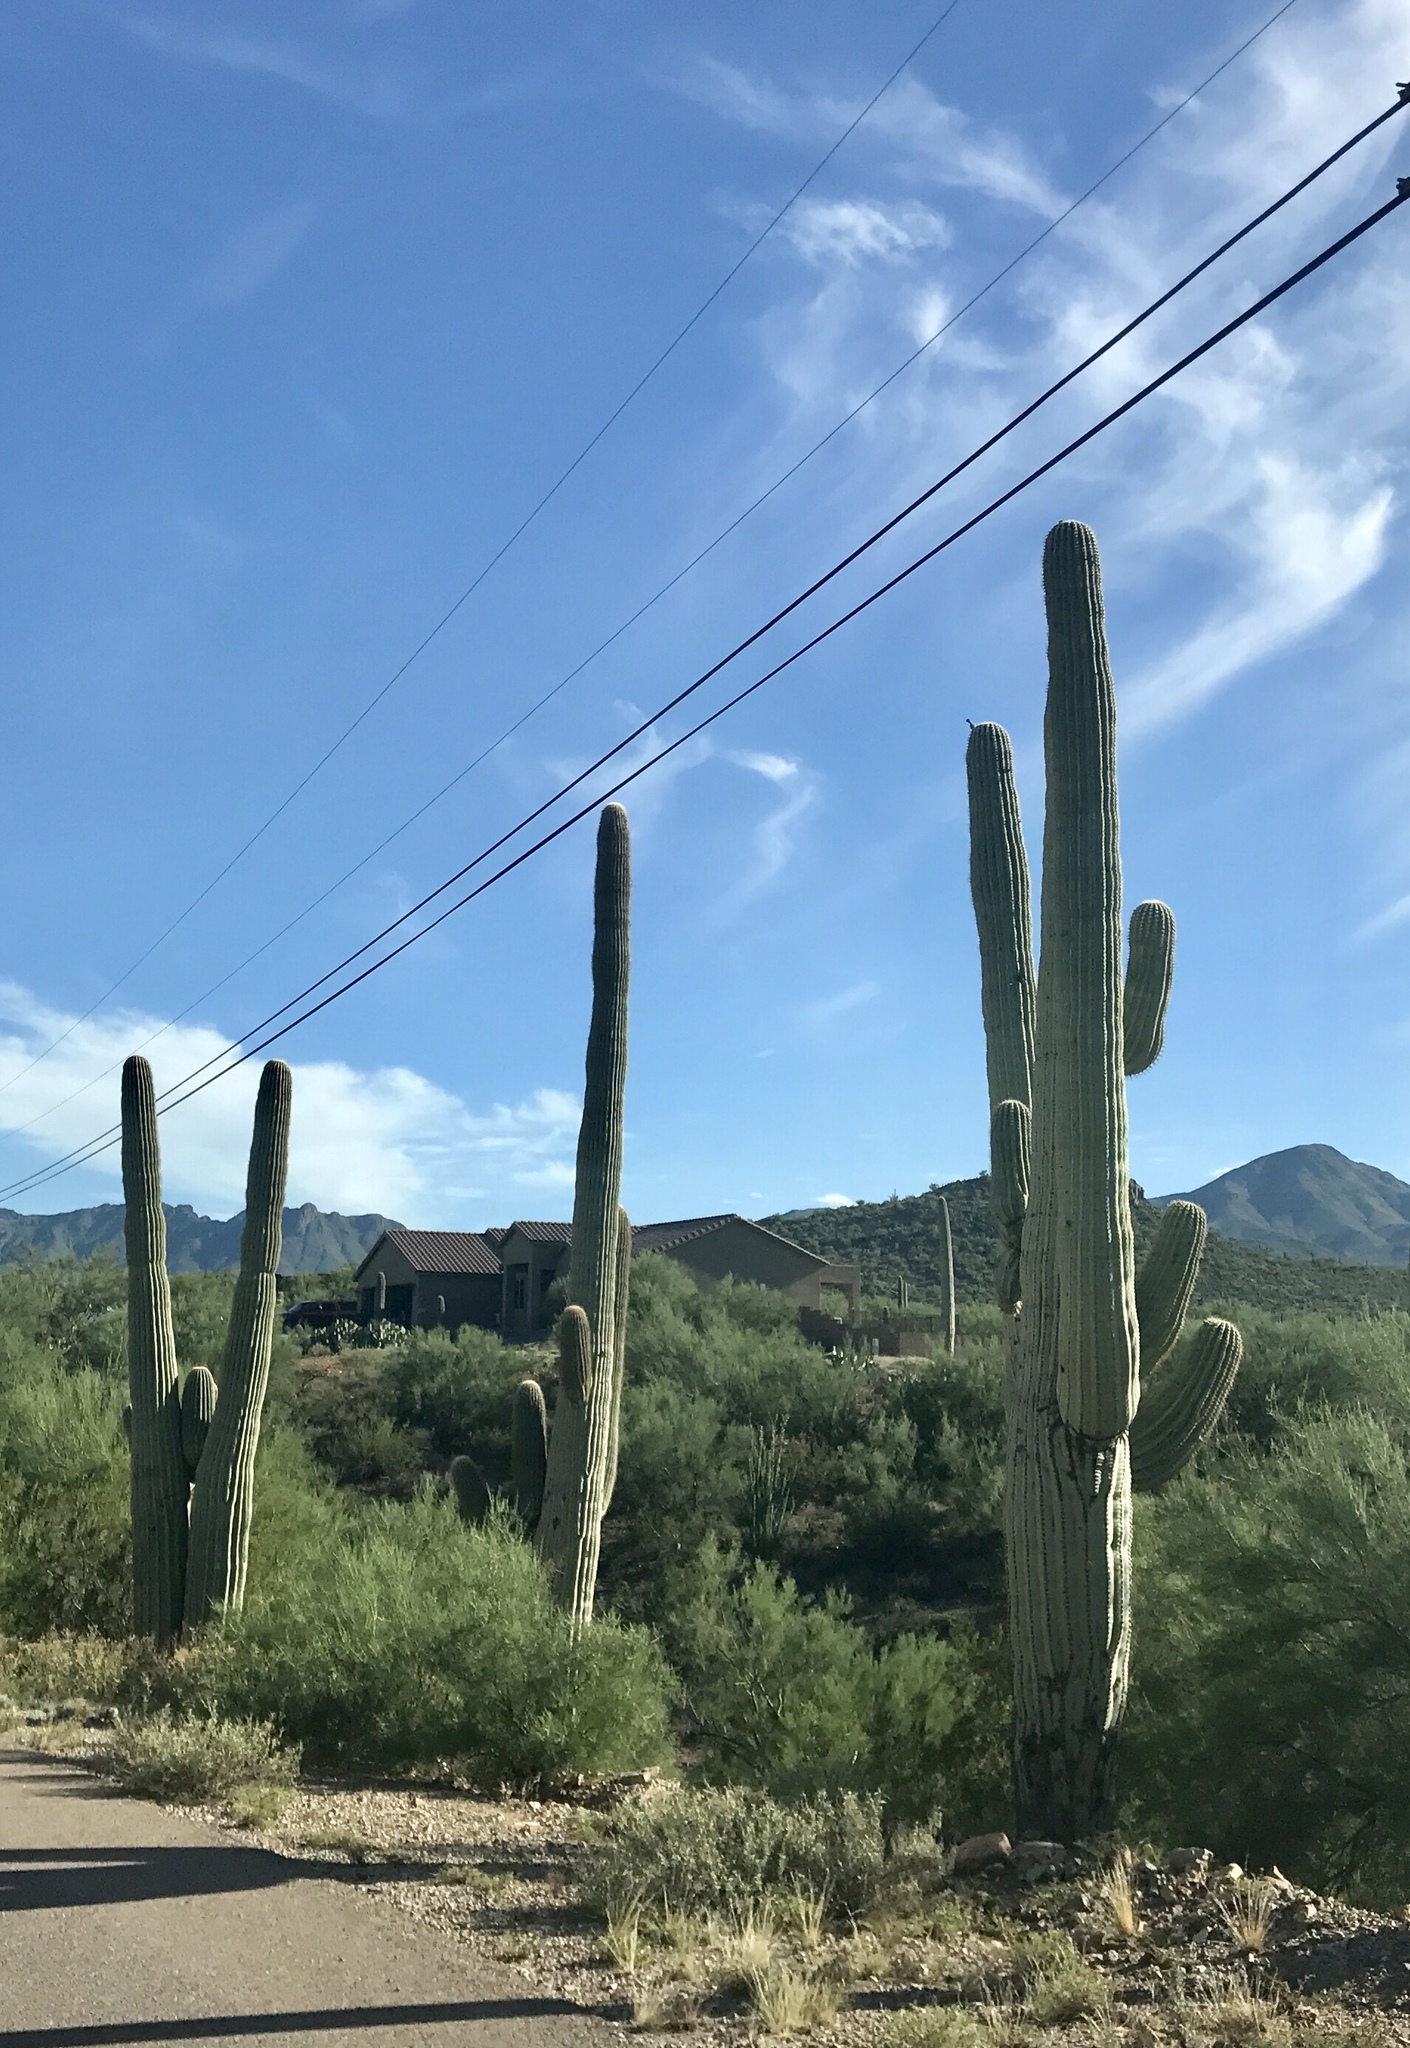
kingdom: Plantae
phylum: Tracheophyta
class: Magnoliopsida
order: Caryophyllales
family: Cactaceae
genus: Carnegiea
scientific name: Carnegiea gigantea
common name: Saguaro
